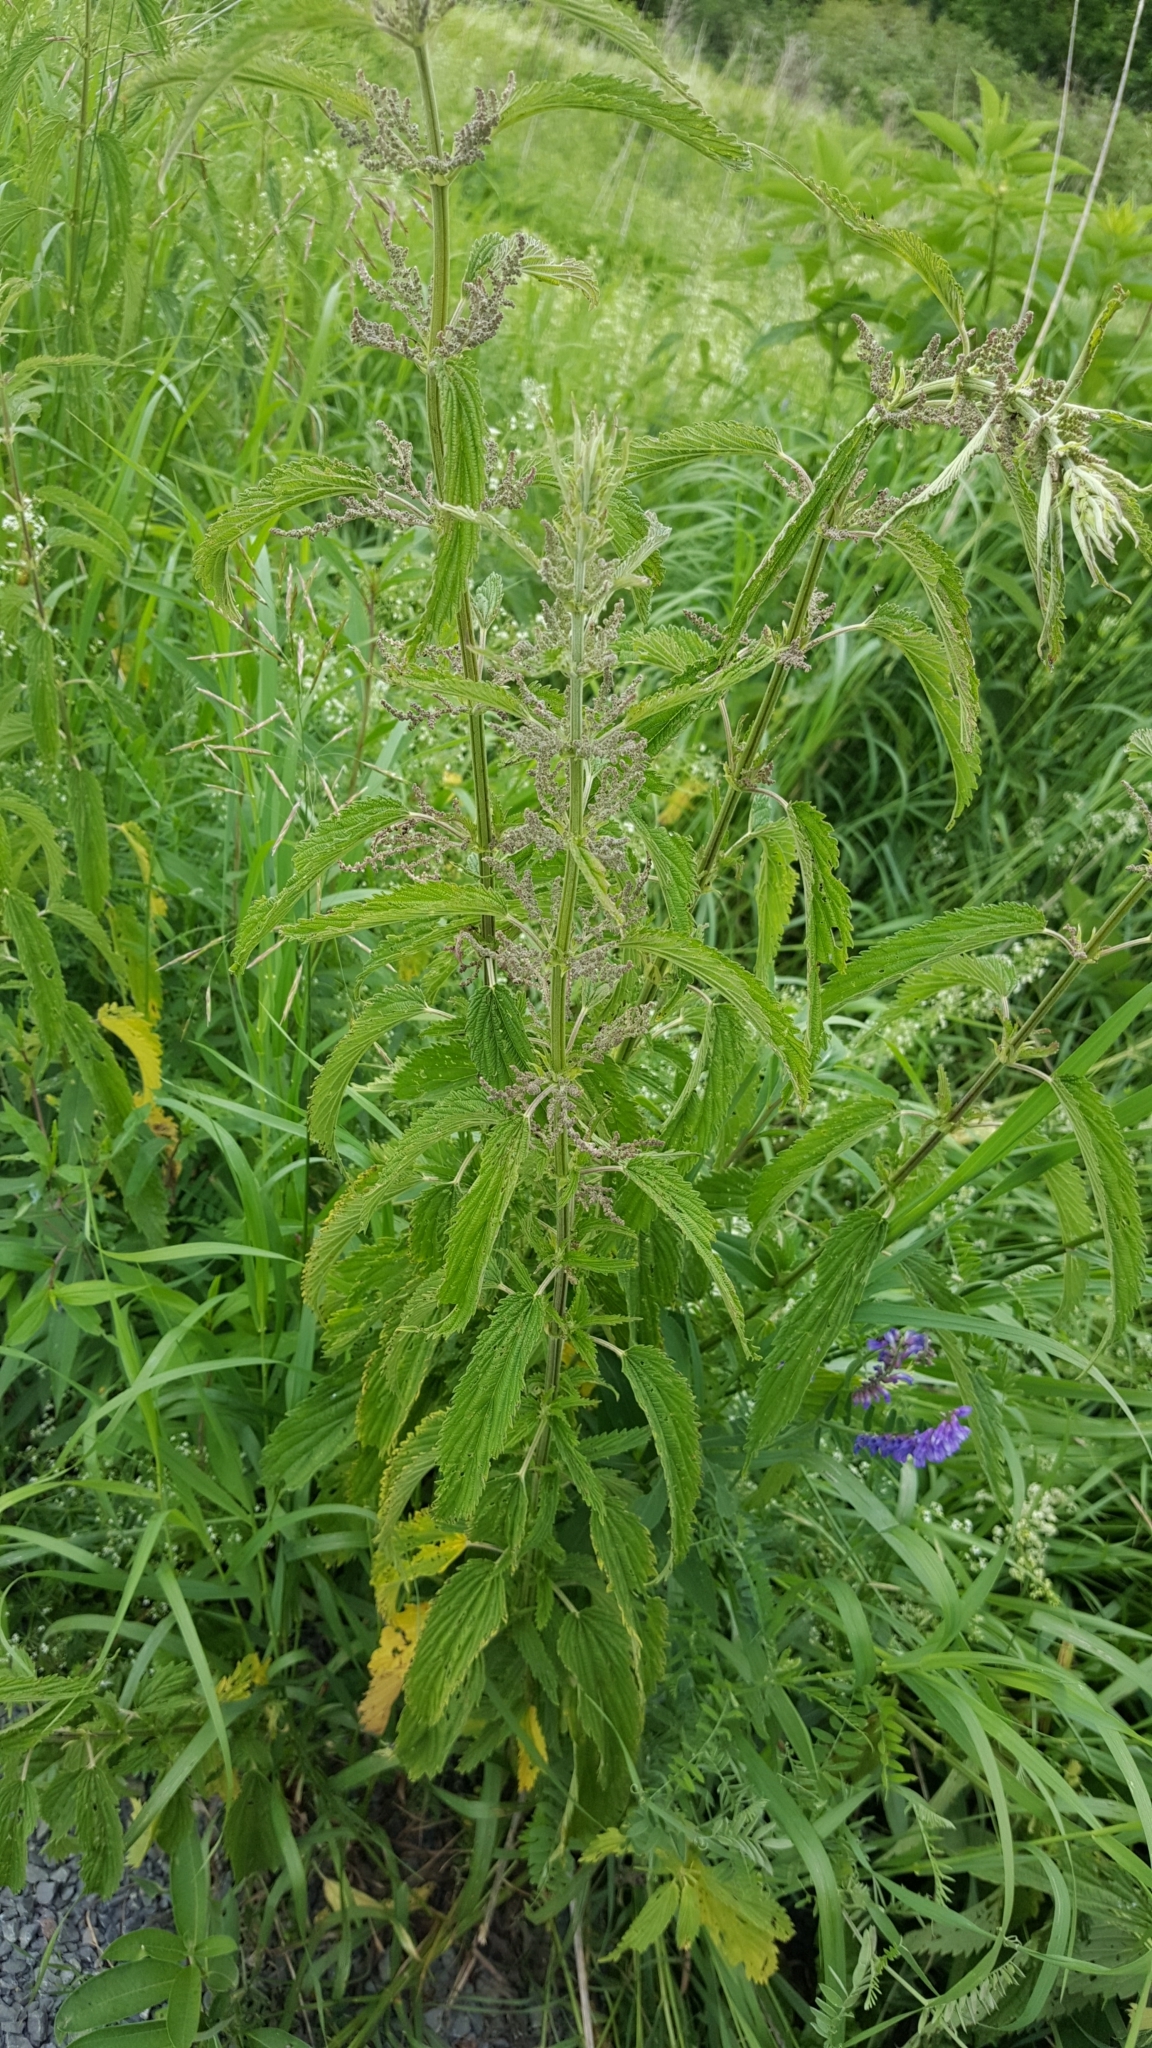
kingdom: Plantae
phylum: Tracheophyta
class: Magnoliopsida
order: Rosales
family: Urticaceae
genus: Urtica
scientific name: Urtica dioica
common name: Common nettle
